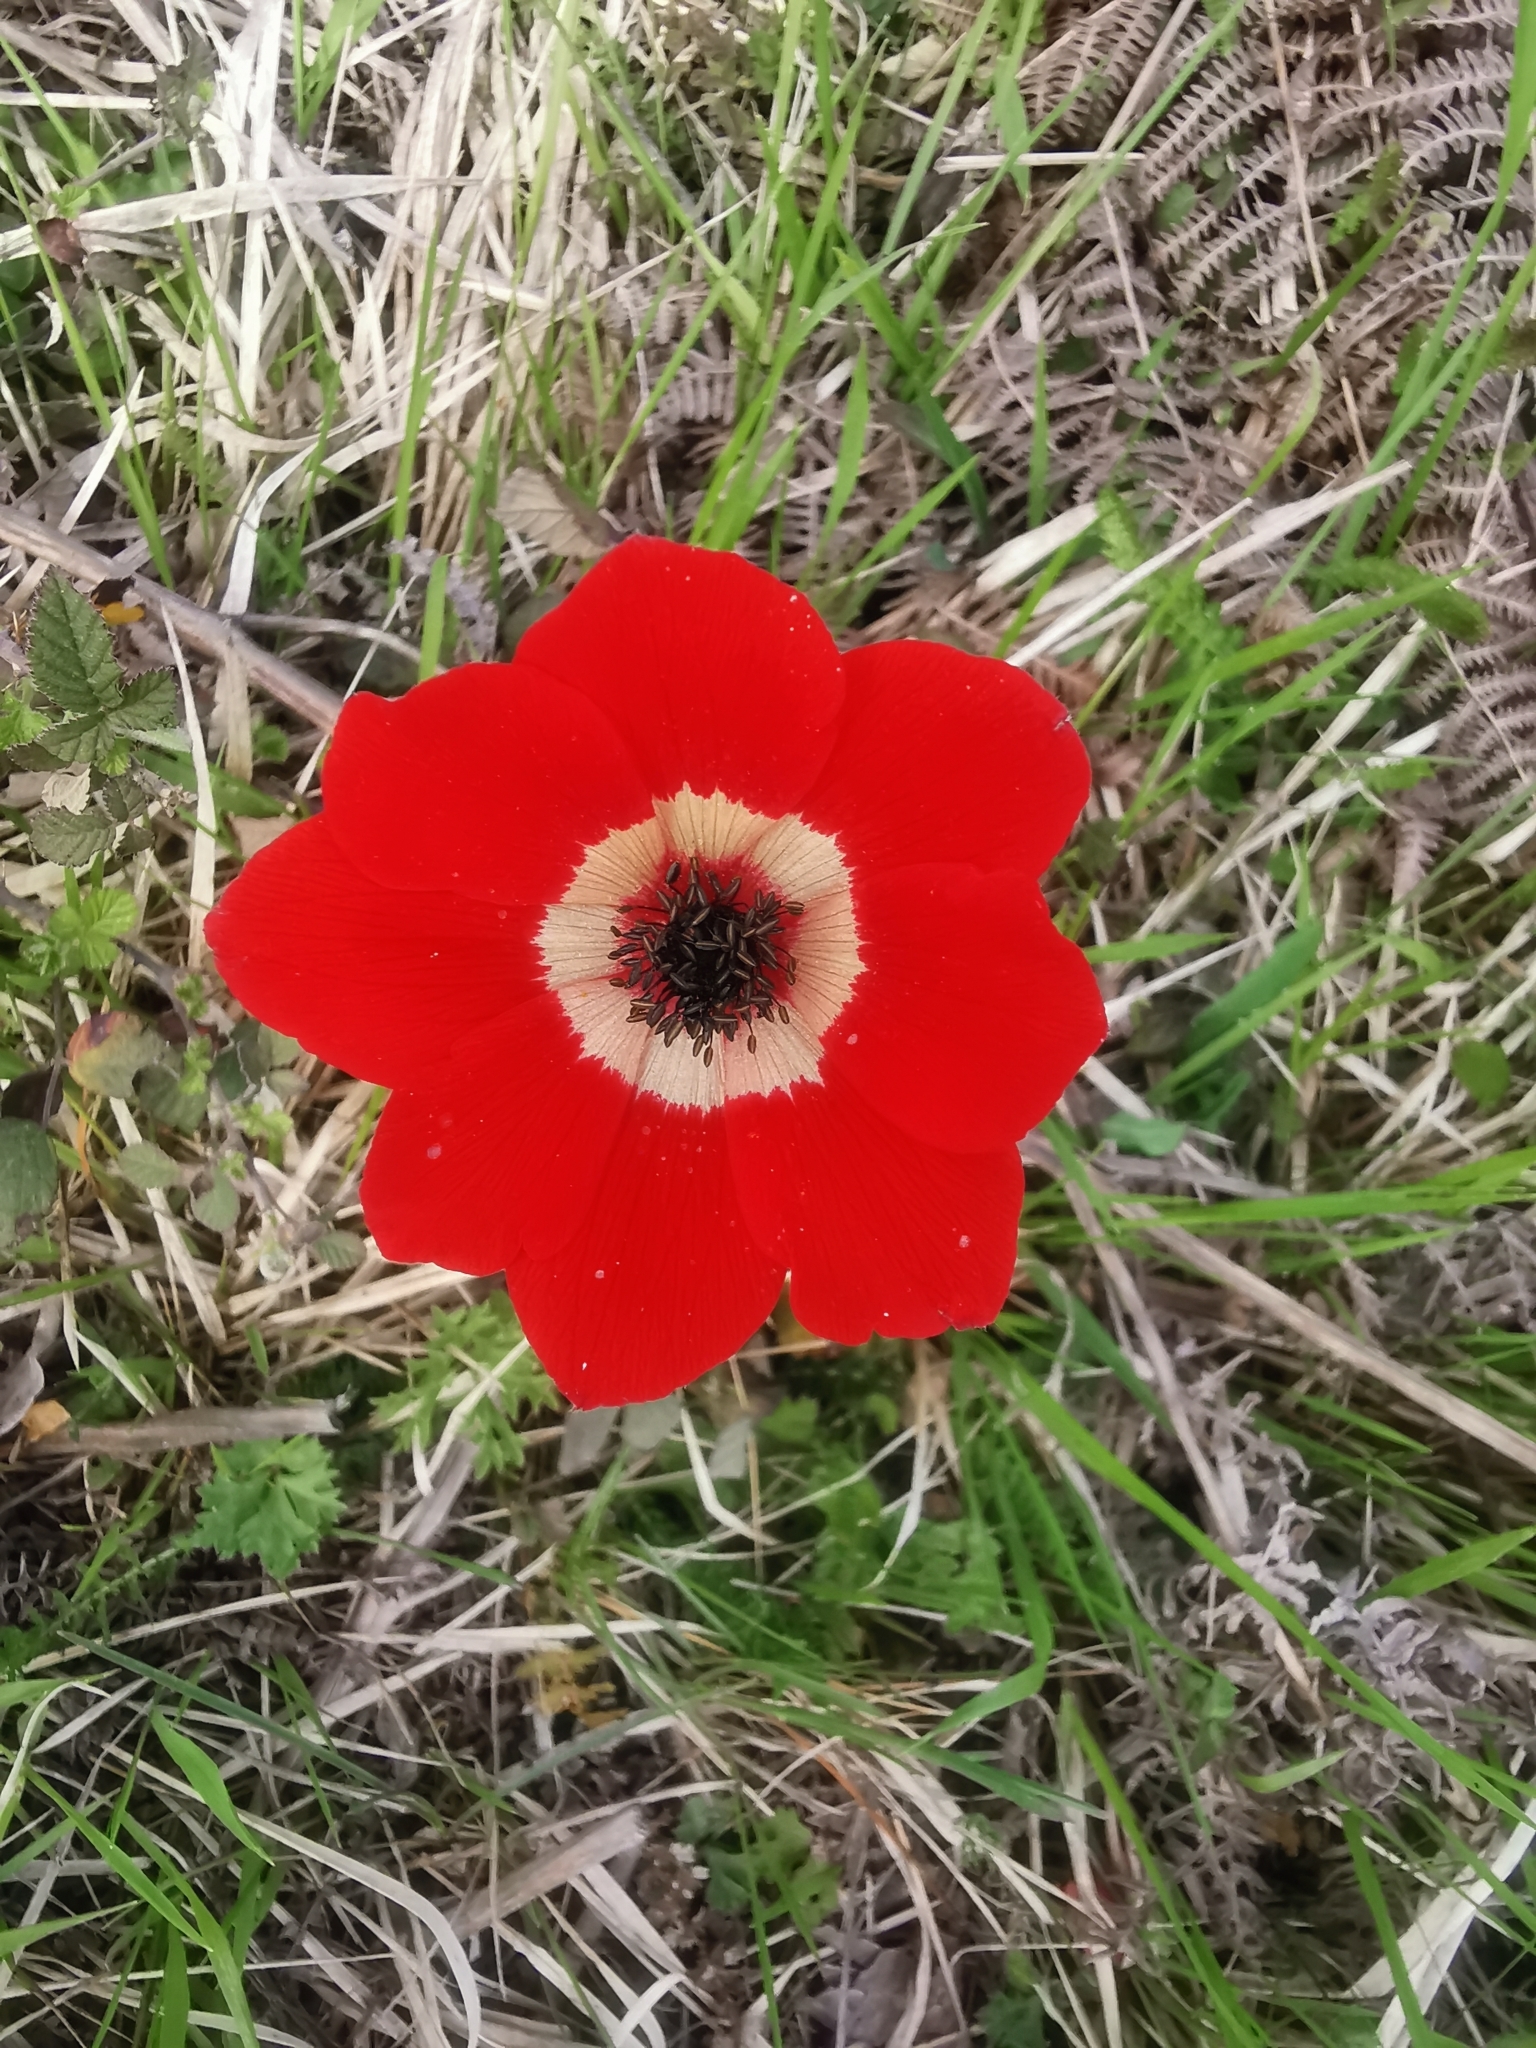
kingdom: Plantae
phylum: Tracheophyta
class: Magnoliopsida
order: Ranunculales
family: Ranunculaceae
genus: Anemone
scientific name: Anemone coronaria
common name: Poppy anemone
